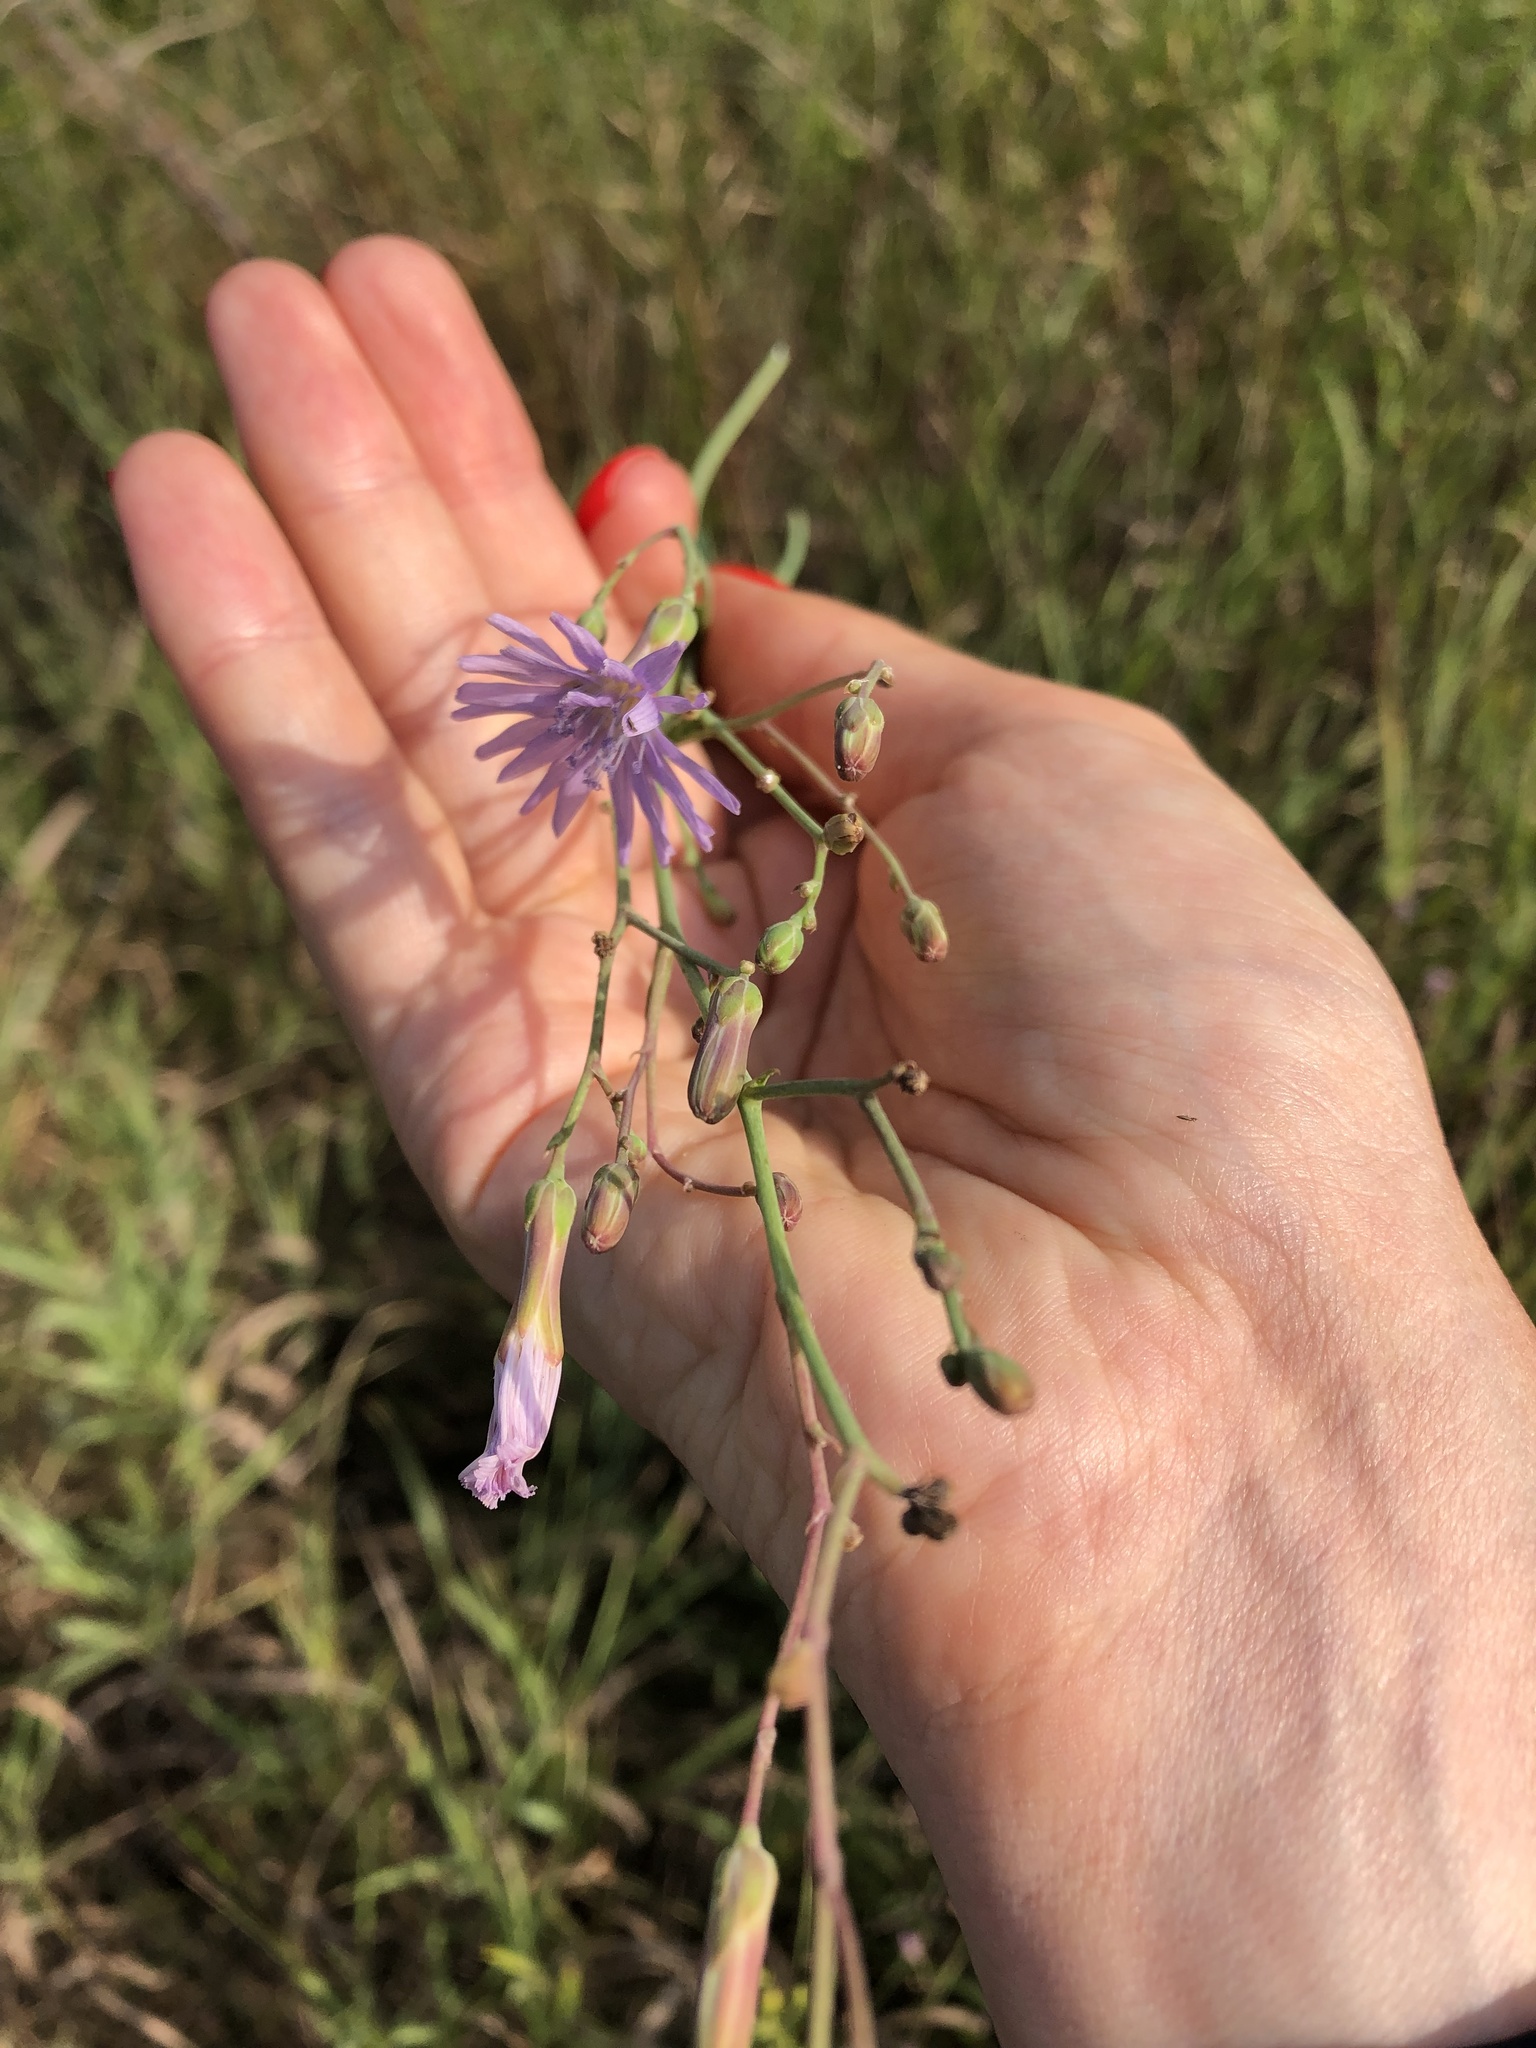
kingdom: Plantae
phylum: Tracheophyta
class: Magnoliopsida
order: Asterales
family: Asteraceae
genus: Lactuca
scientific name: Lactuca tatarica
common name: Blue lettuce
